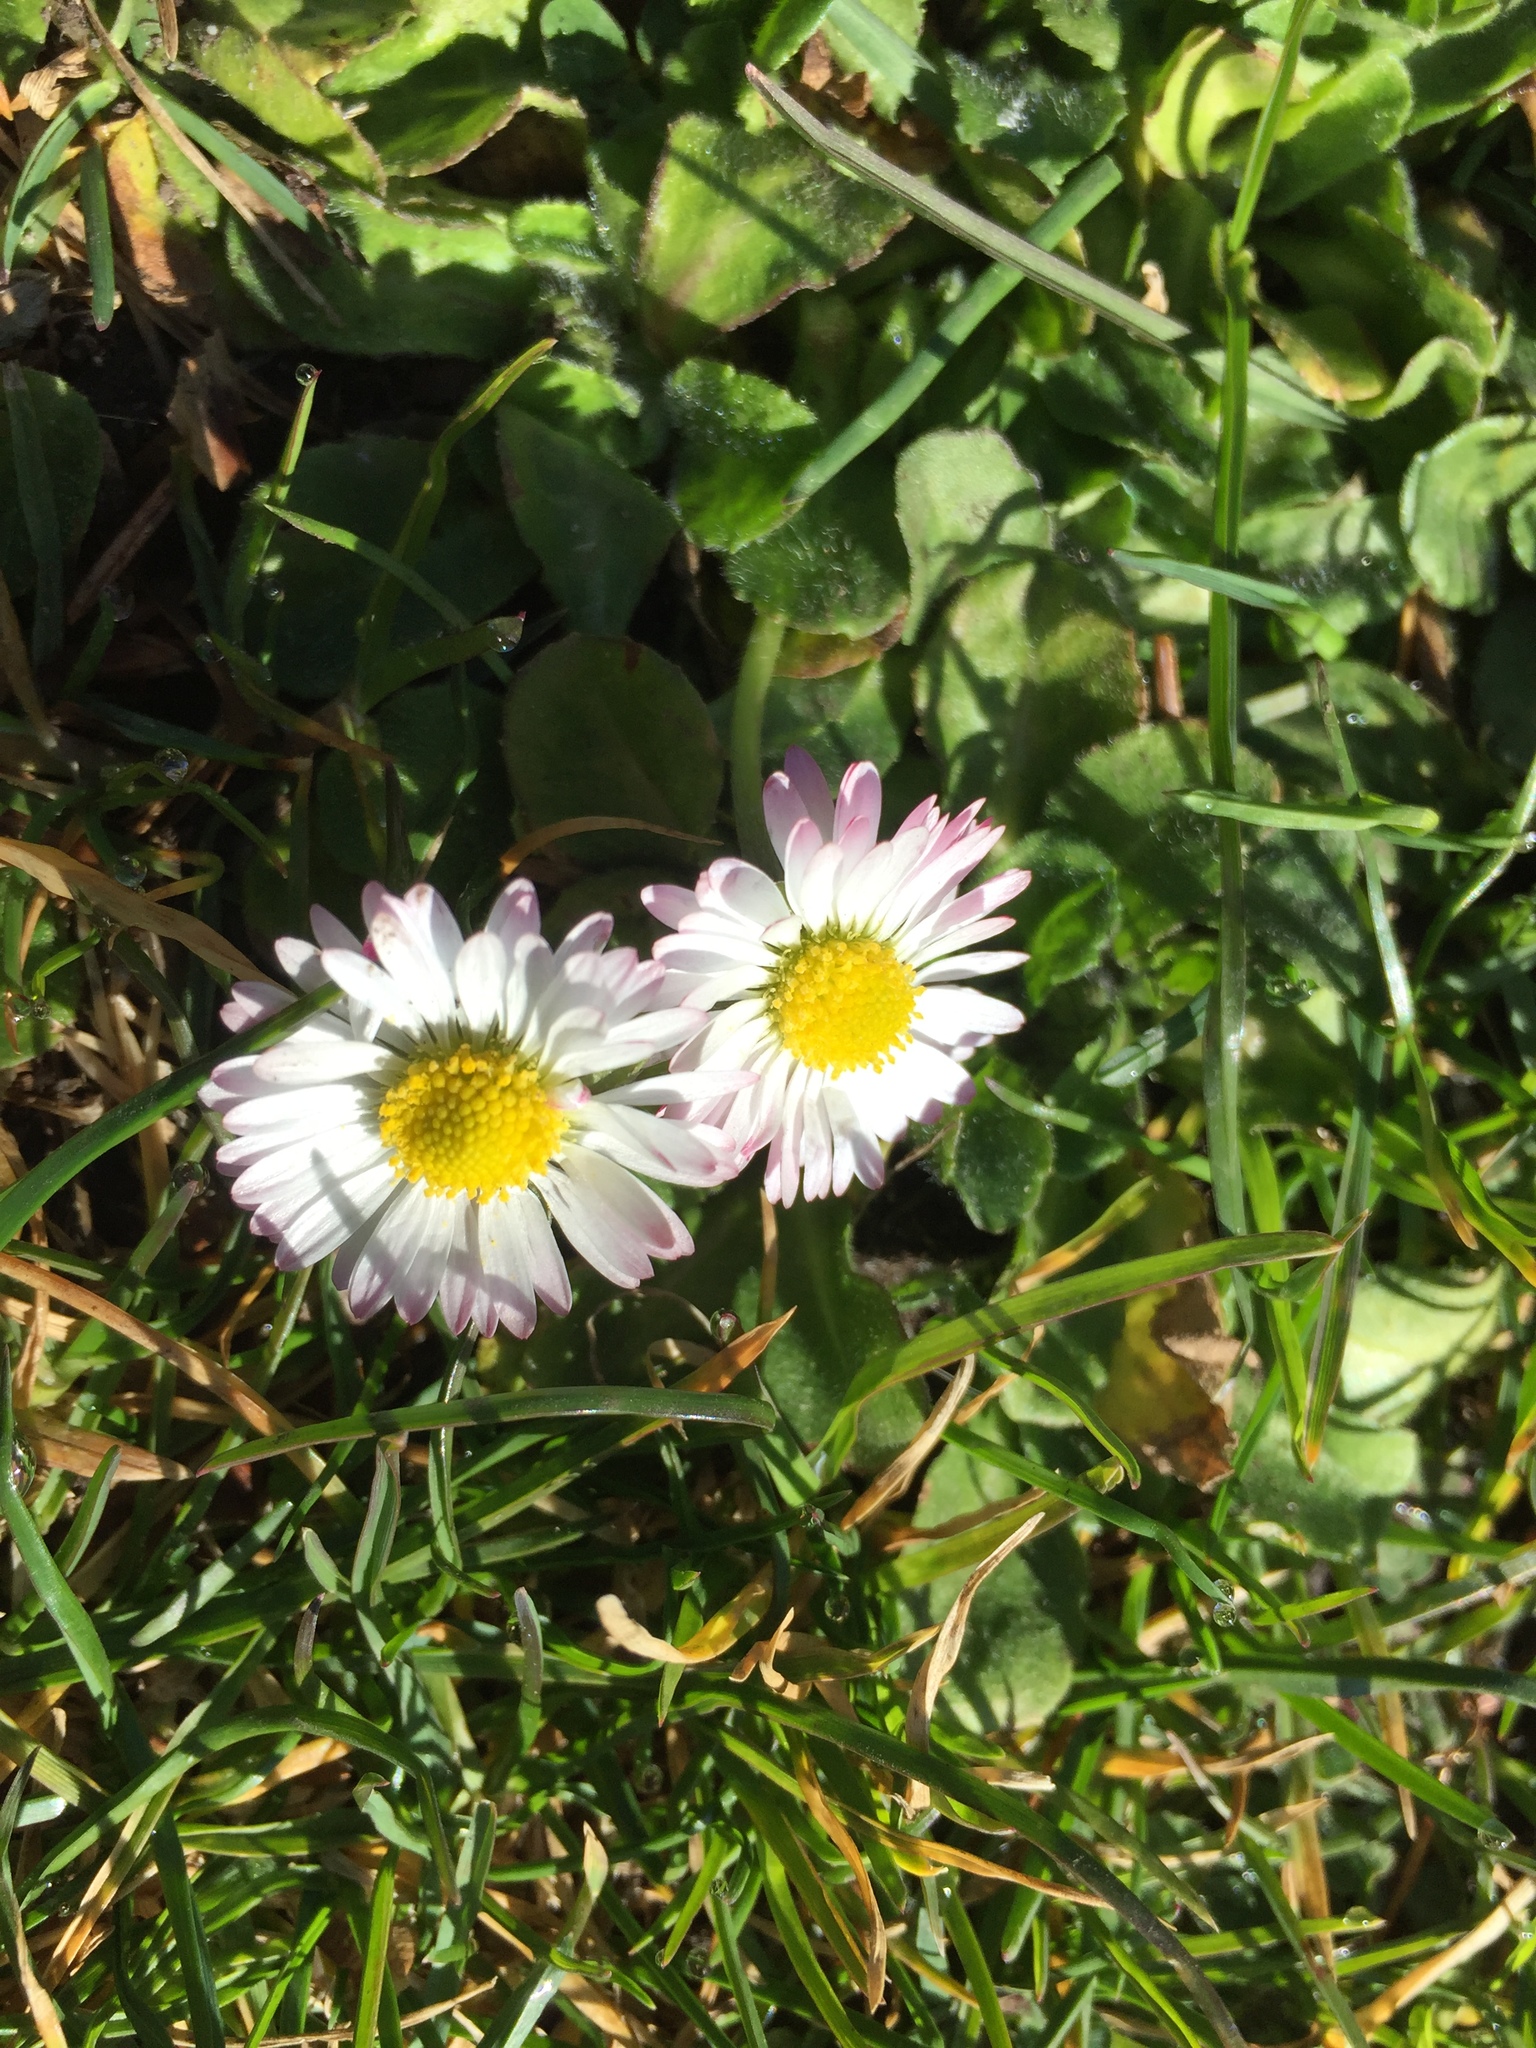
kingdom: Plantae
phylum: Tracheophyta
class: Magnoliopsida
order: Asterales
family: Asteraceae
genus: Bellis
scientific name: Bellis perennis
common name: Lawndaisy
